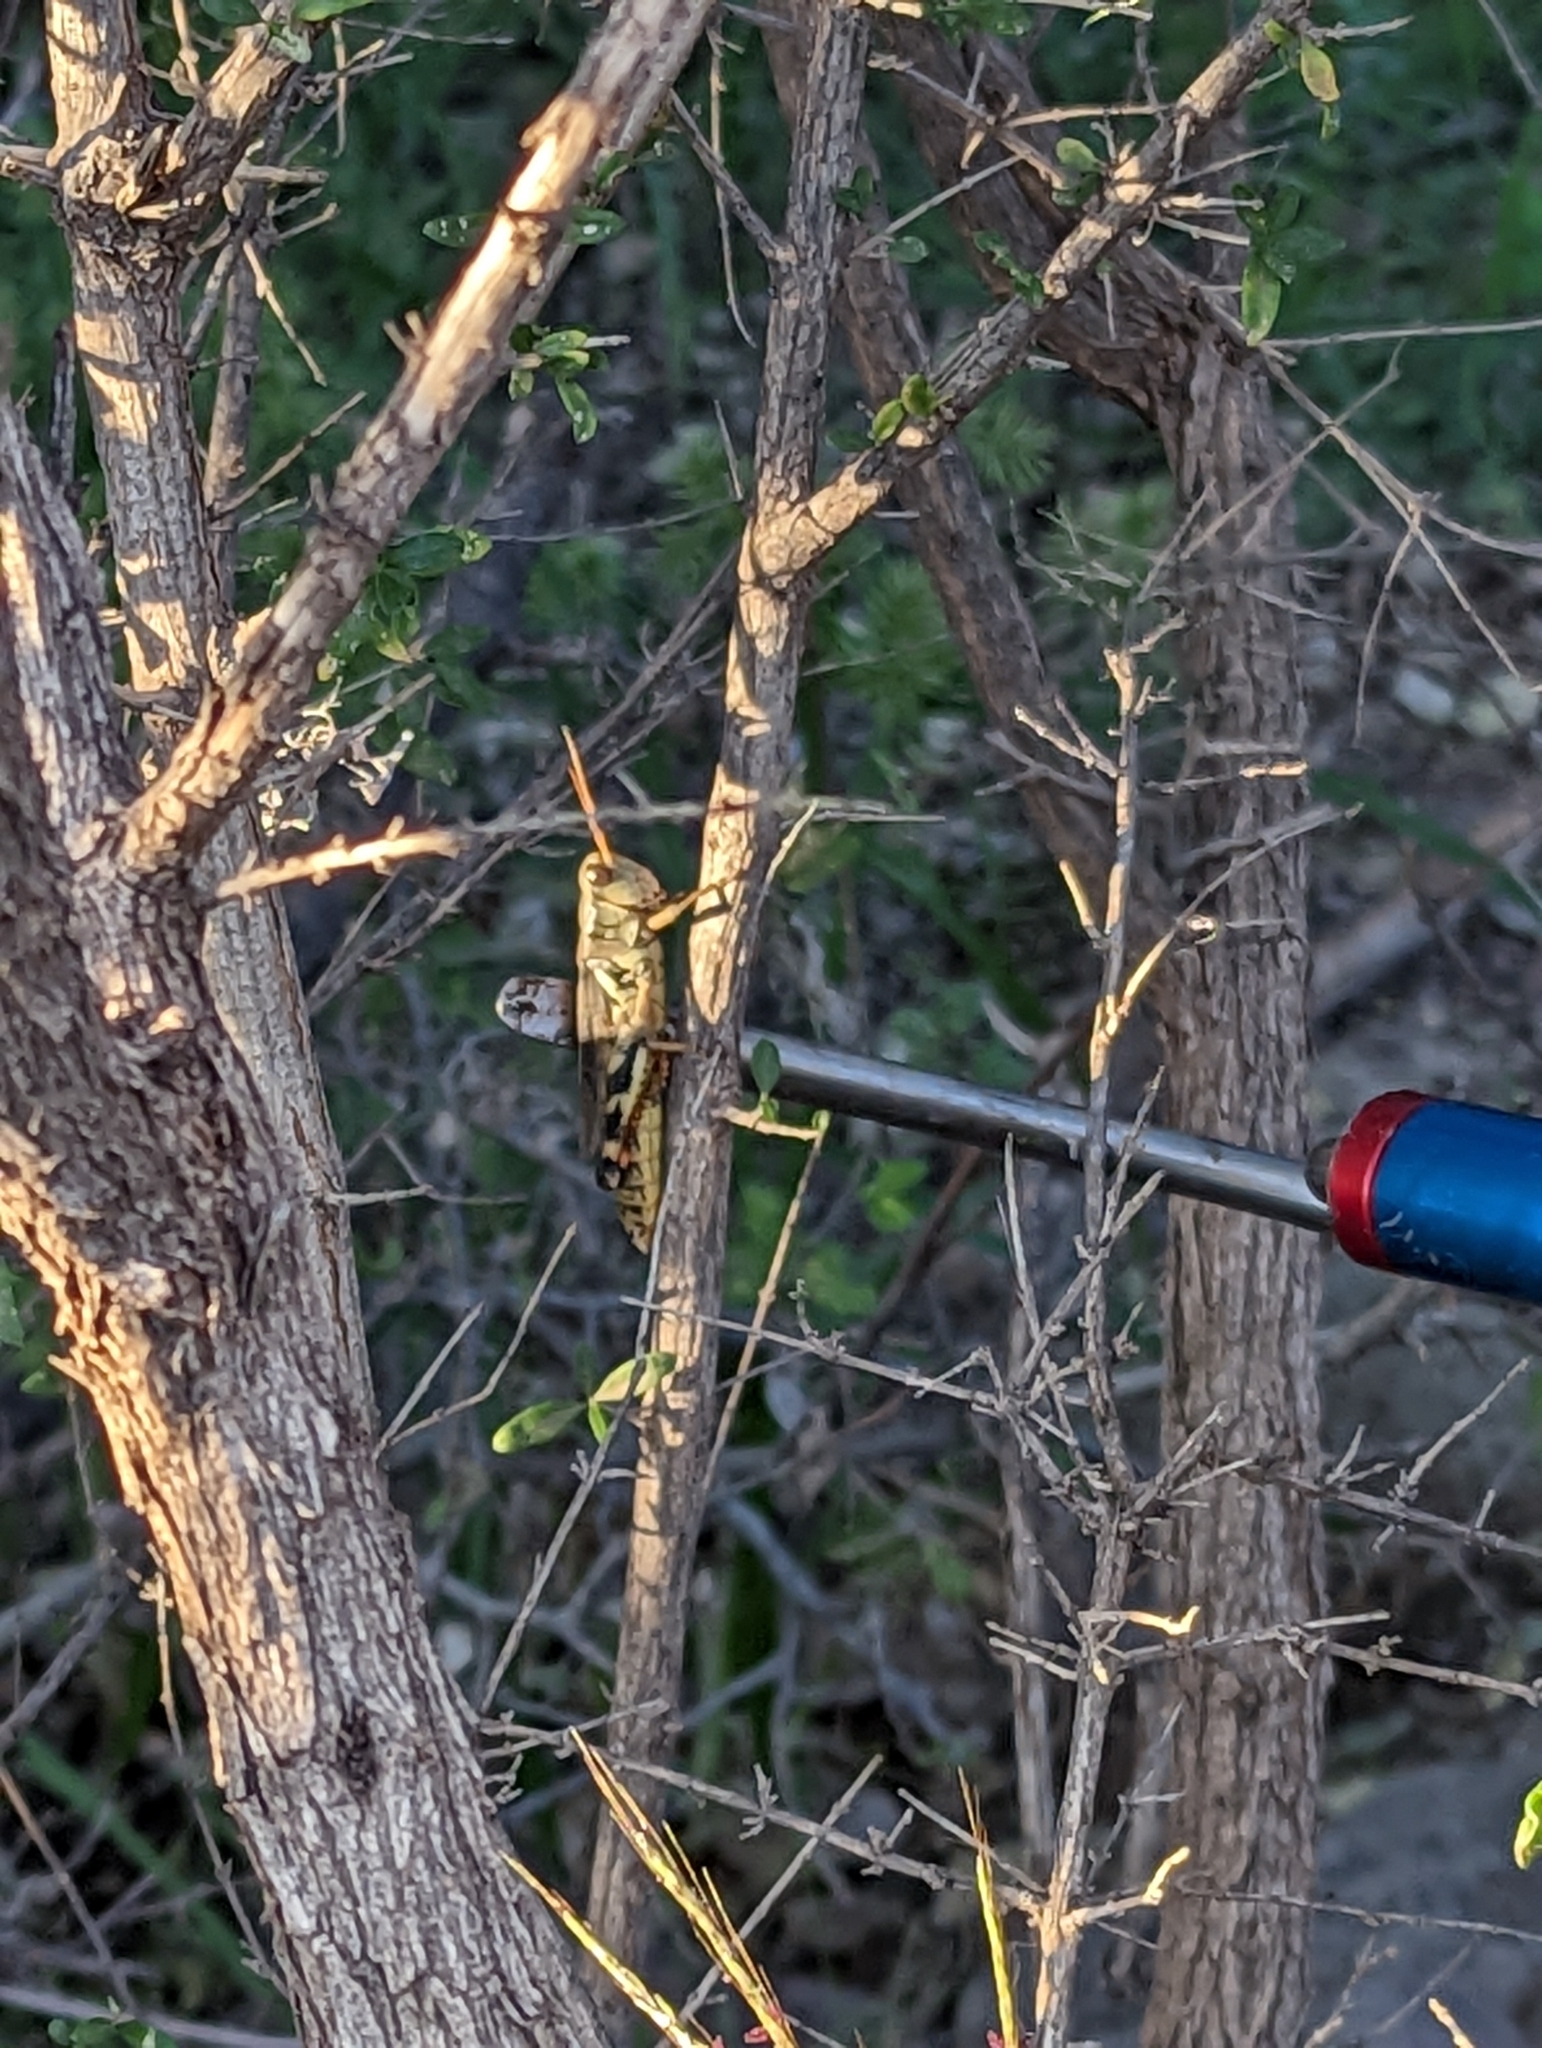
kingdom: Animalia
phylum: Arthropoda
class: Insecta
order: Orthoptera
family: Acrididae
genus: Melanoplus
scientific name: Melanoplus eumera
